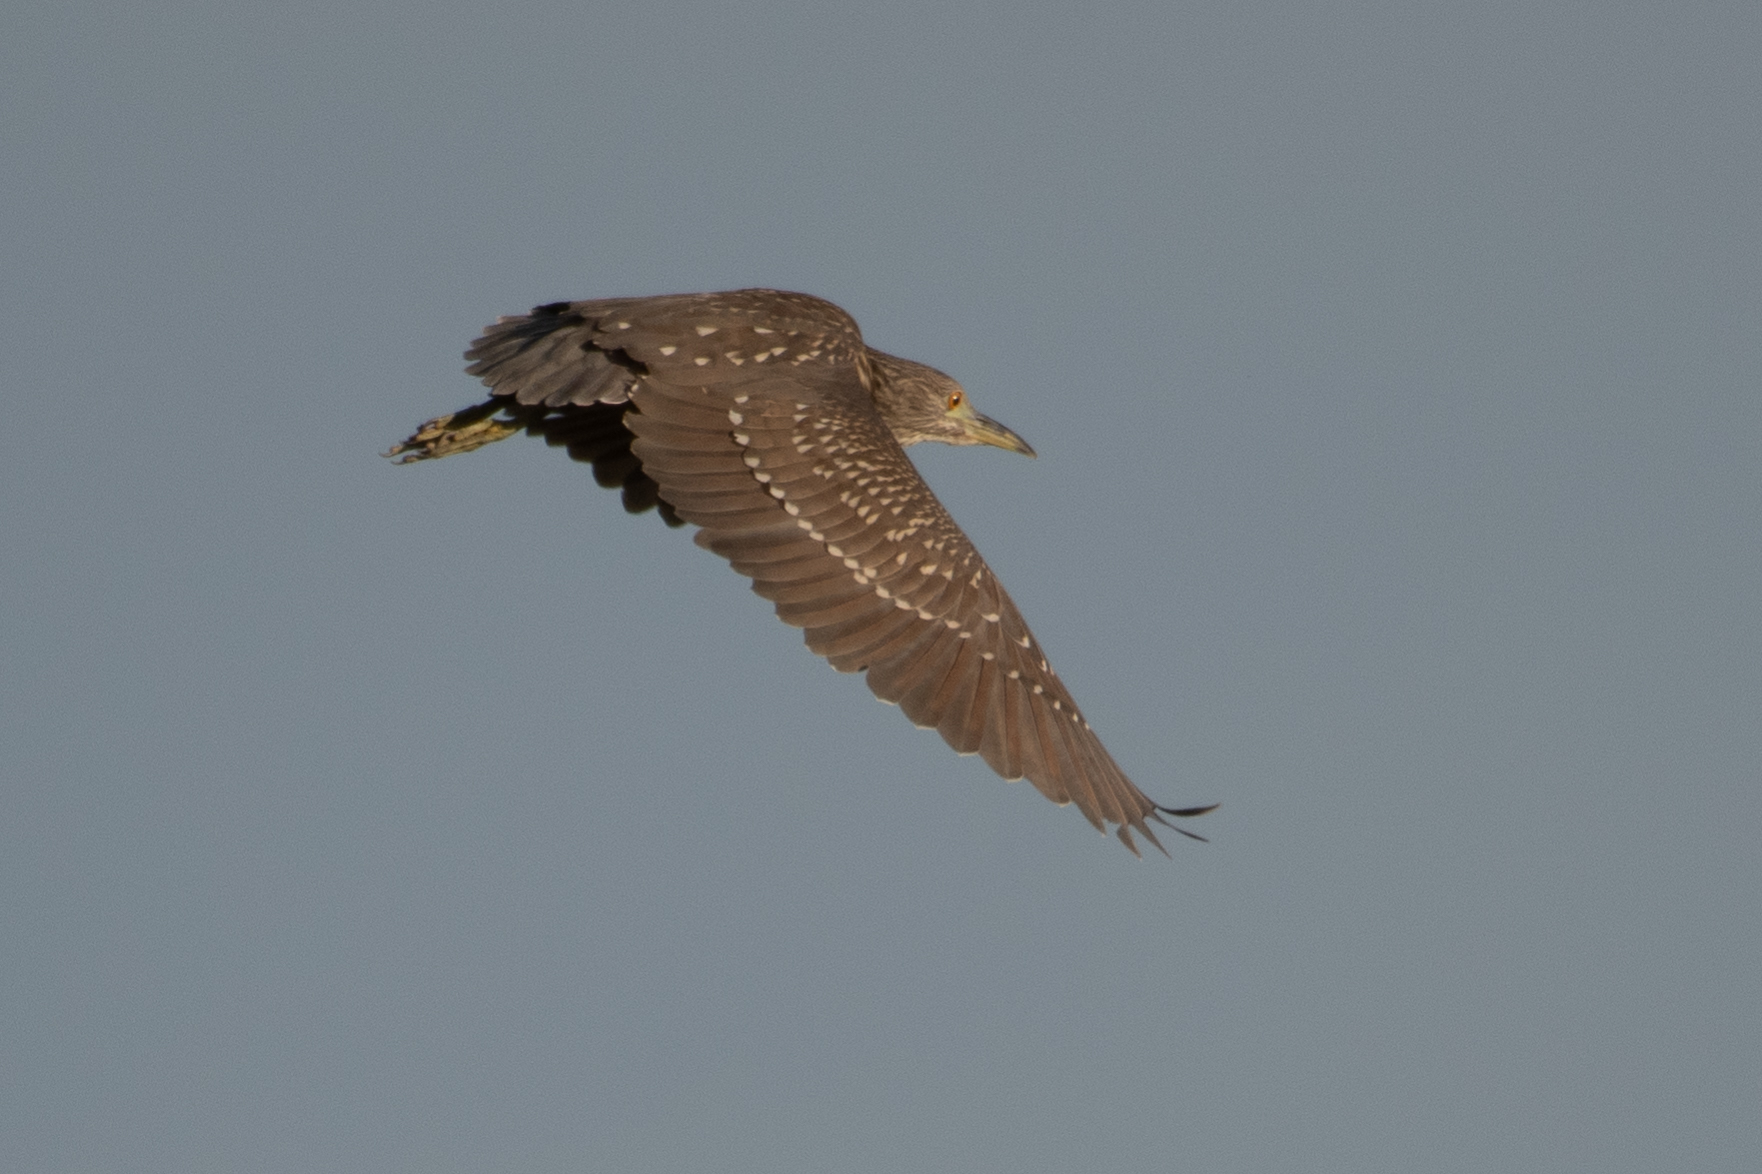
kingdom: Animalia
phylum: Chordata
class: Aves
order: Pelecaniformes
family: Ardeidae
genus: Nycticorax
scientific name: Nycticorax nycticorax
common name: Black-crowned night heron
